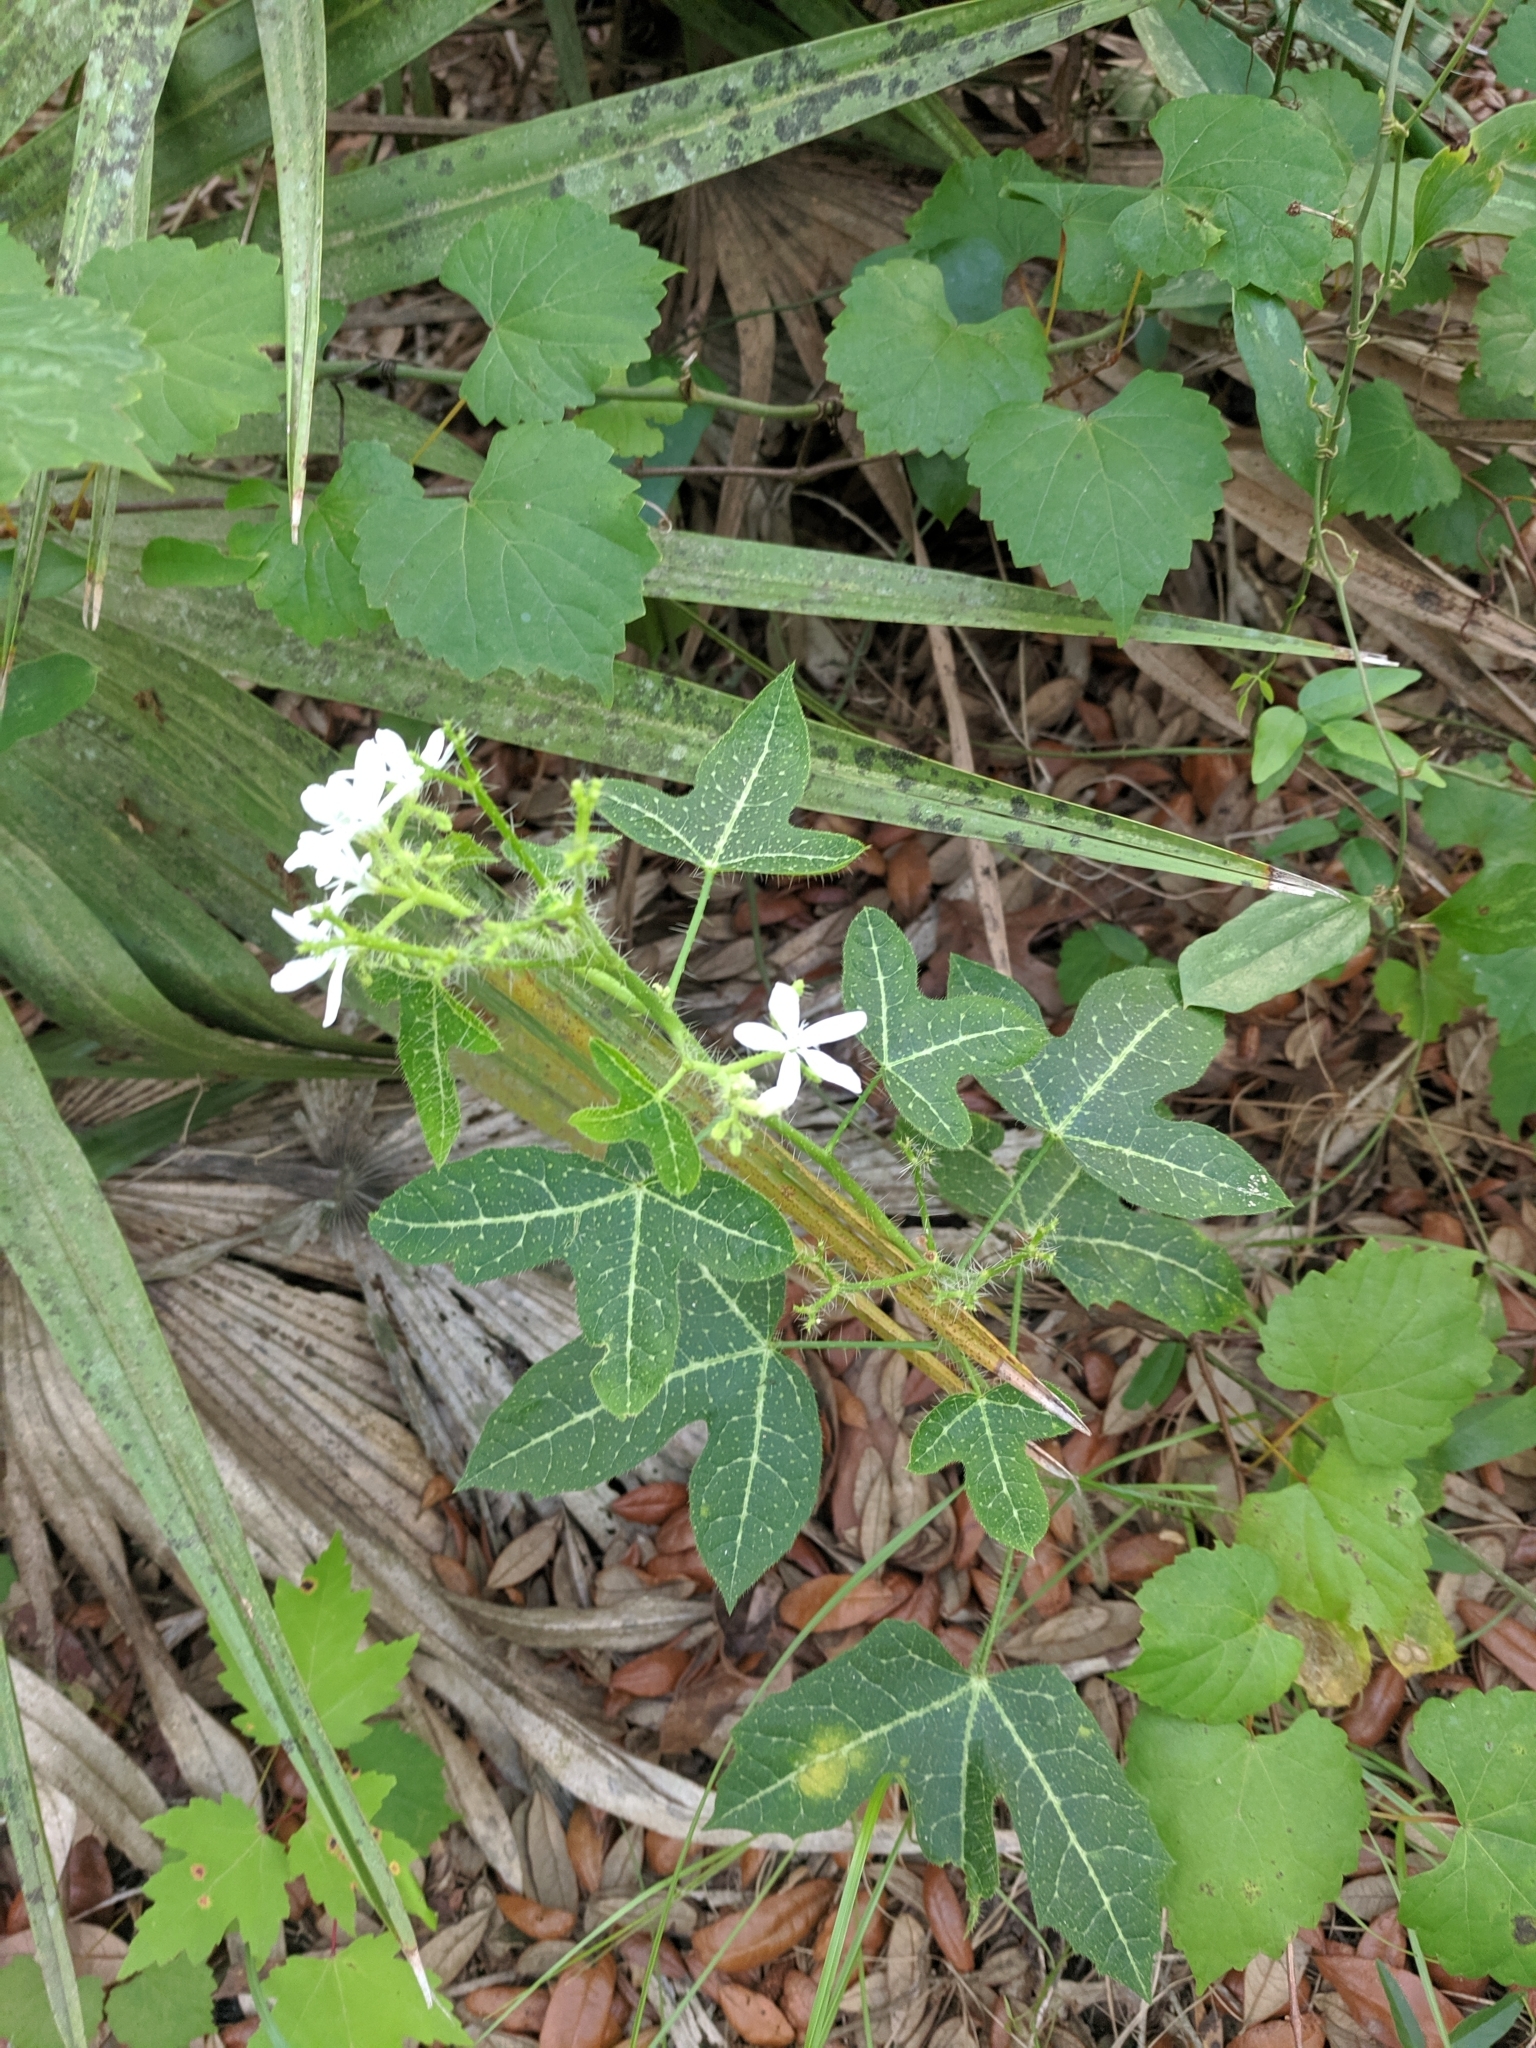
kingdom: Plantae
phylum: Tracheophyta
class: Magnoliopsida
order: Malpighiales
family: Euphorbiaceae
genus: Cnidoscolus
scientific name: Cnidoscolus stimulosus
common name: Bull-nettle
